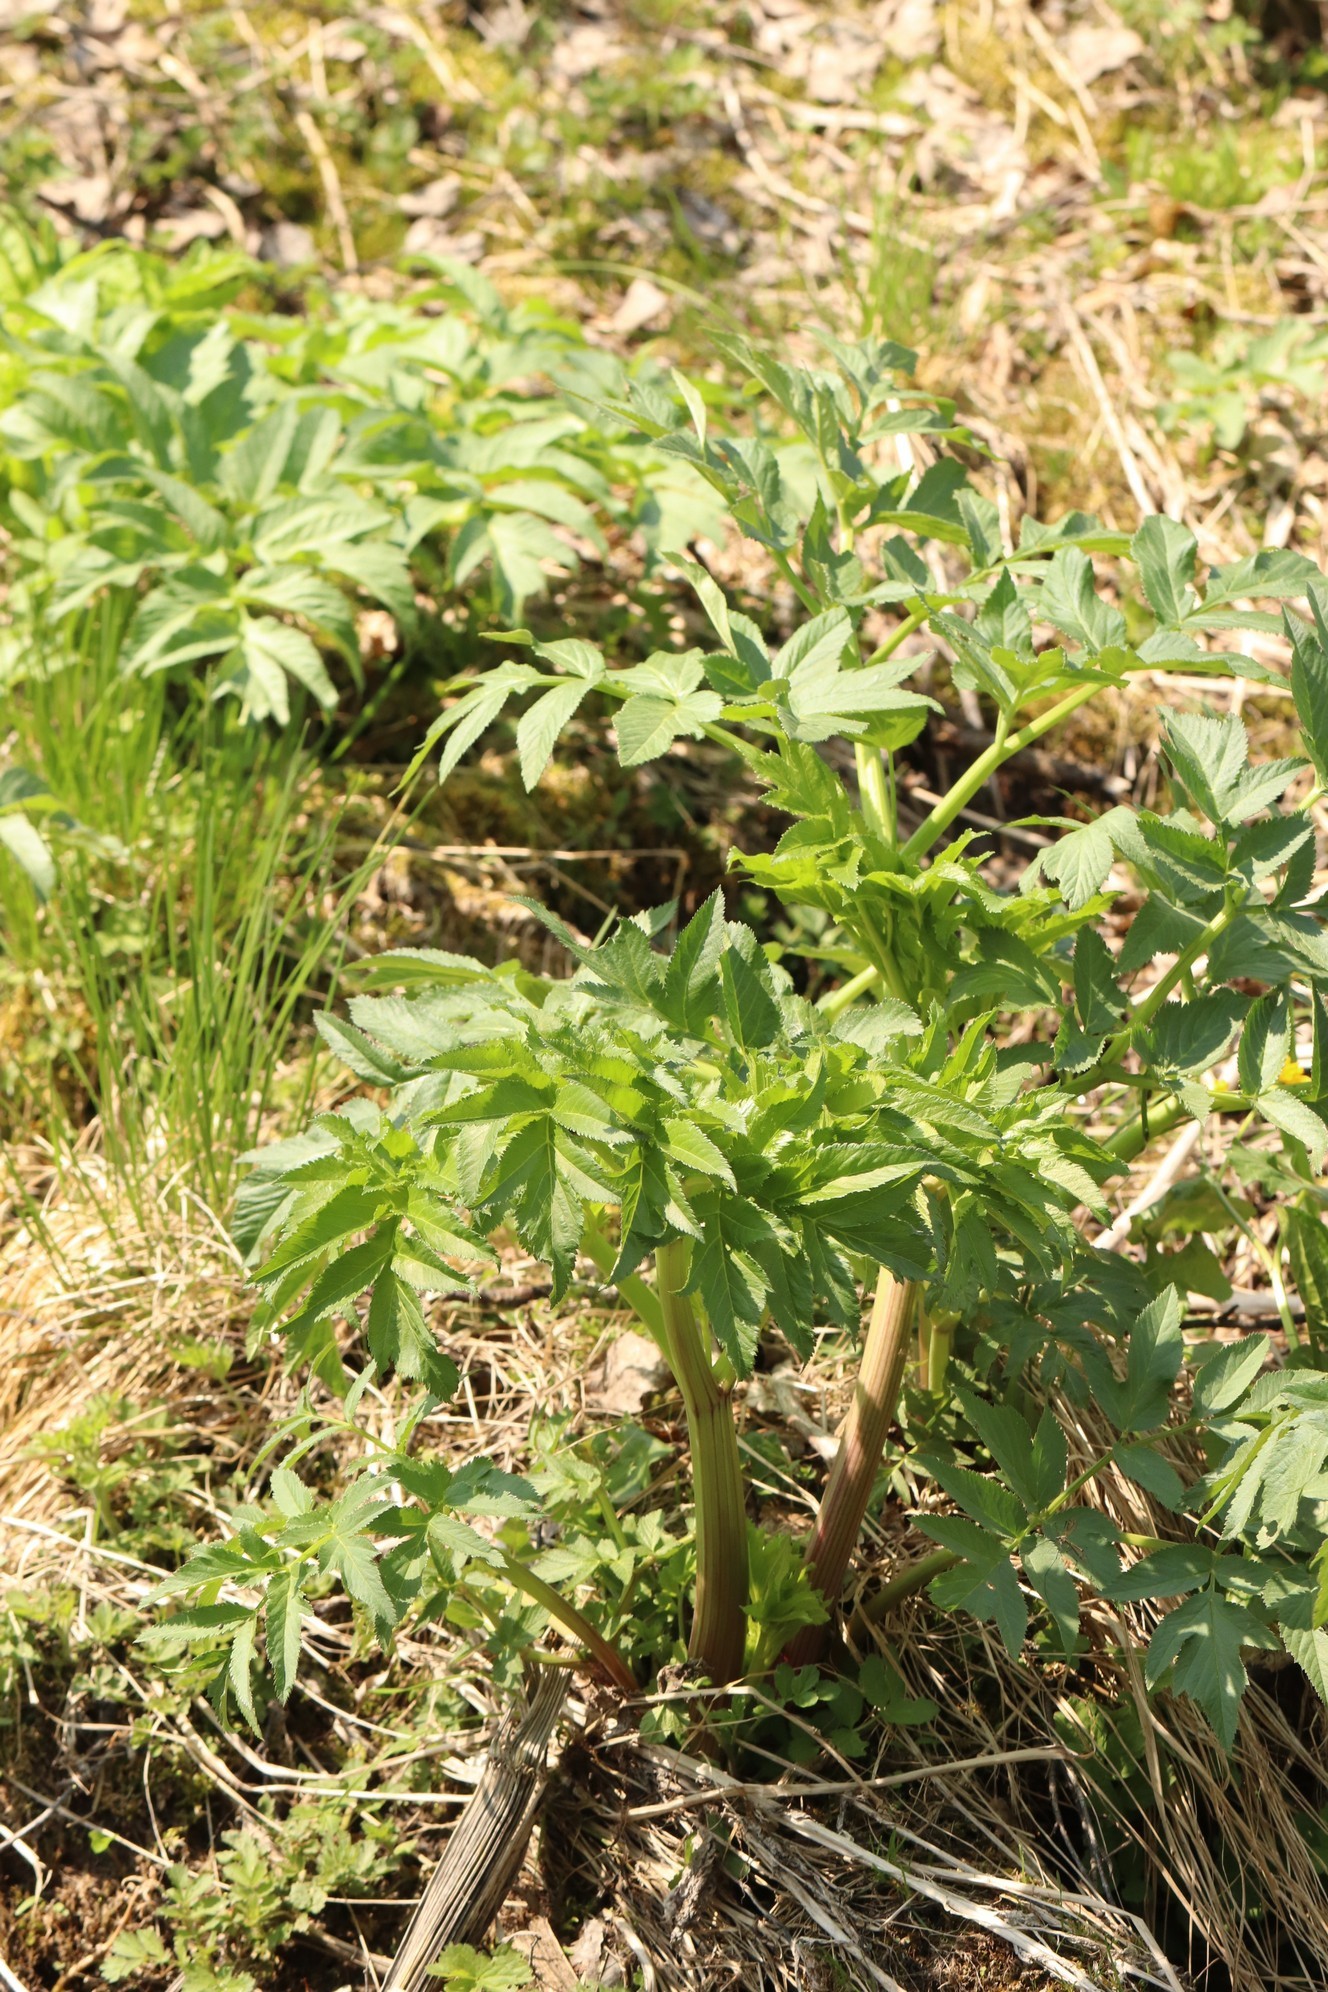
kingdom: Plantae
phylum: Tracheophyta
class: Magnoliopsida
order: Apiales
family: Apiaceae
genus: Angelica
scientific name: Angelica decurrens
